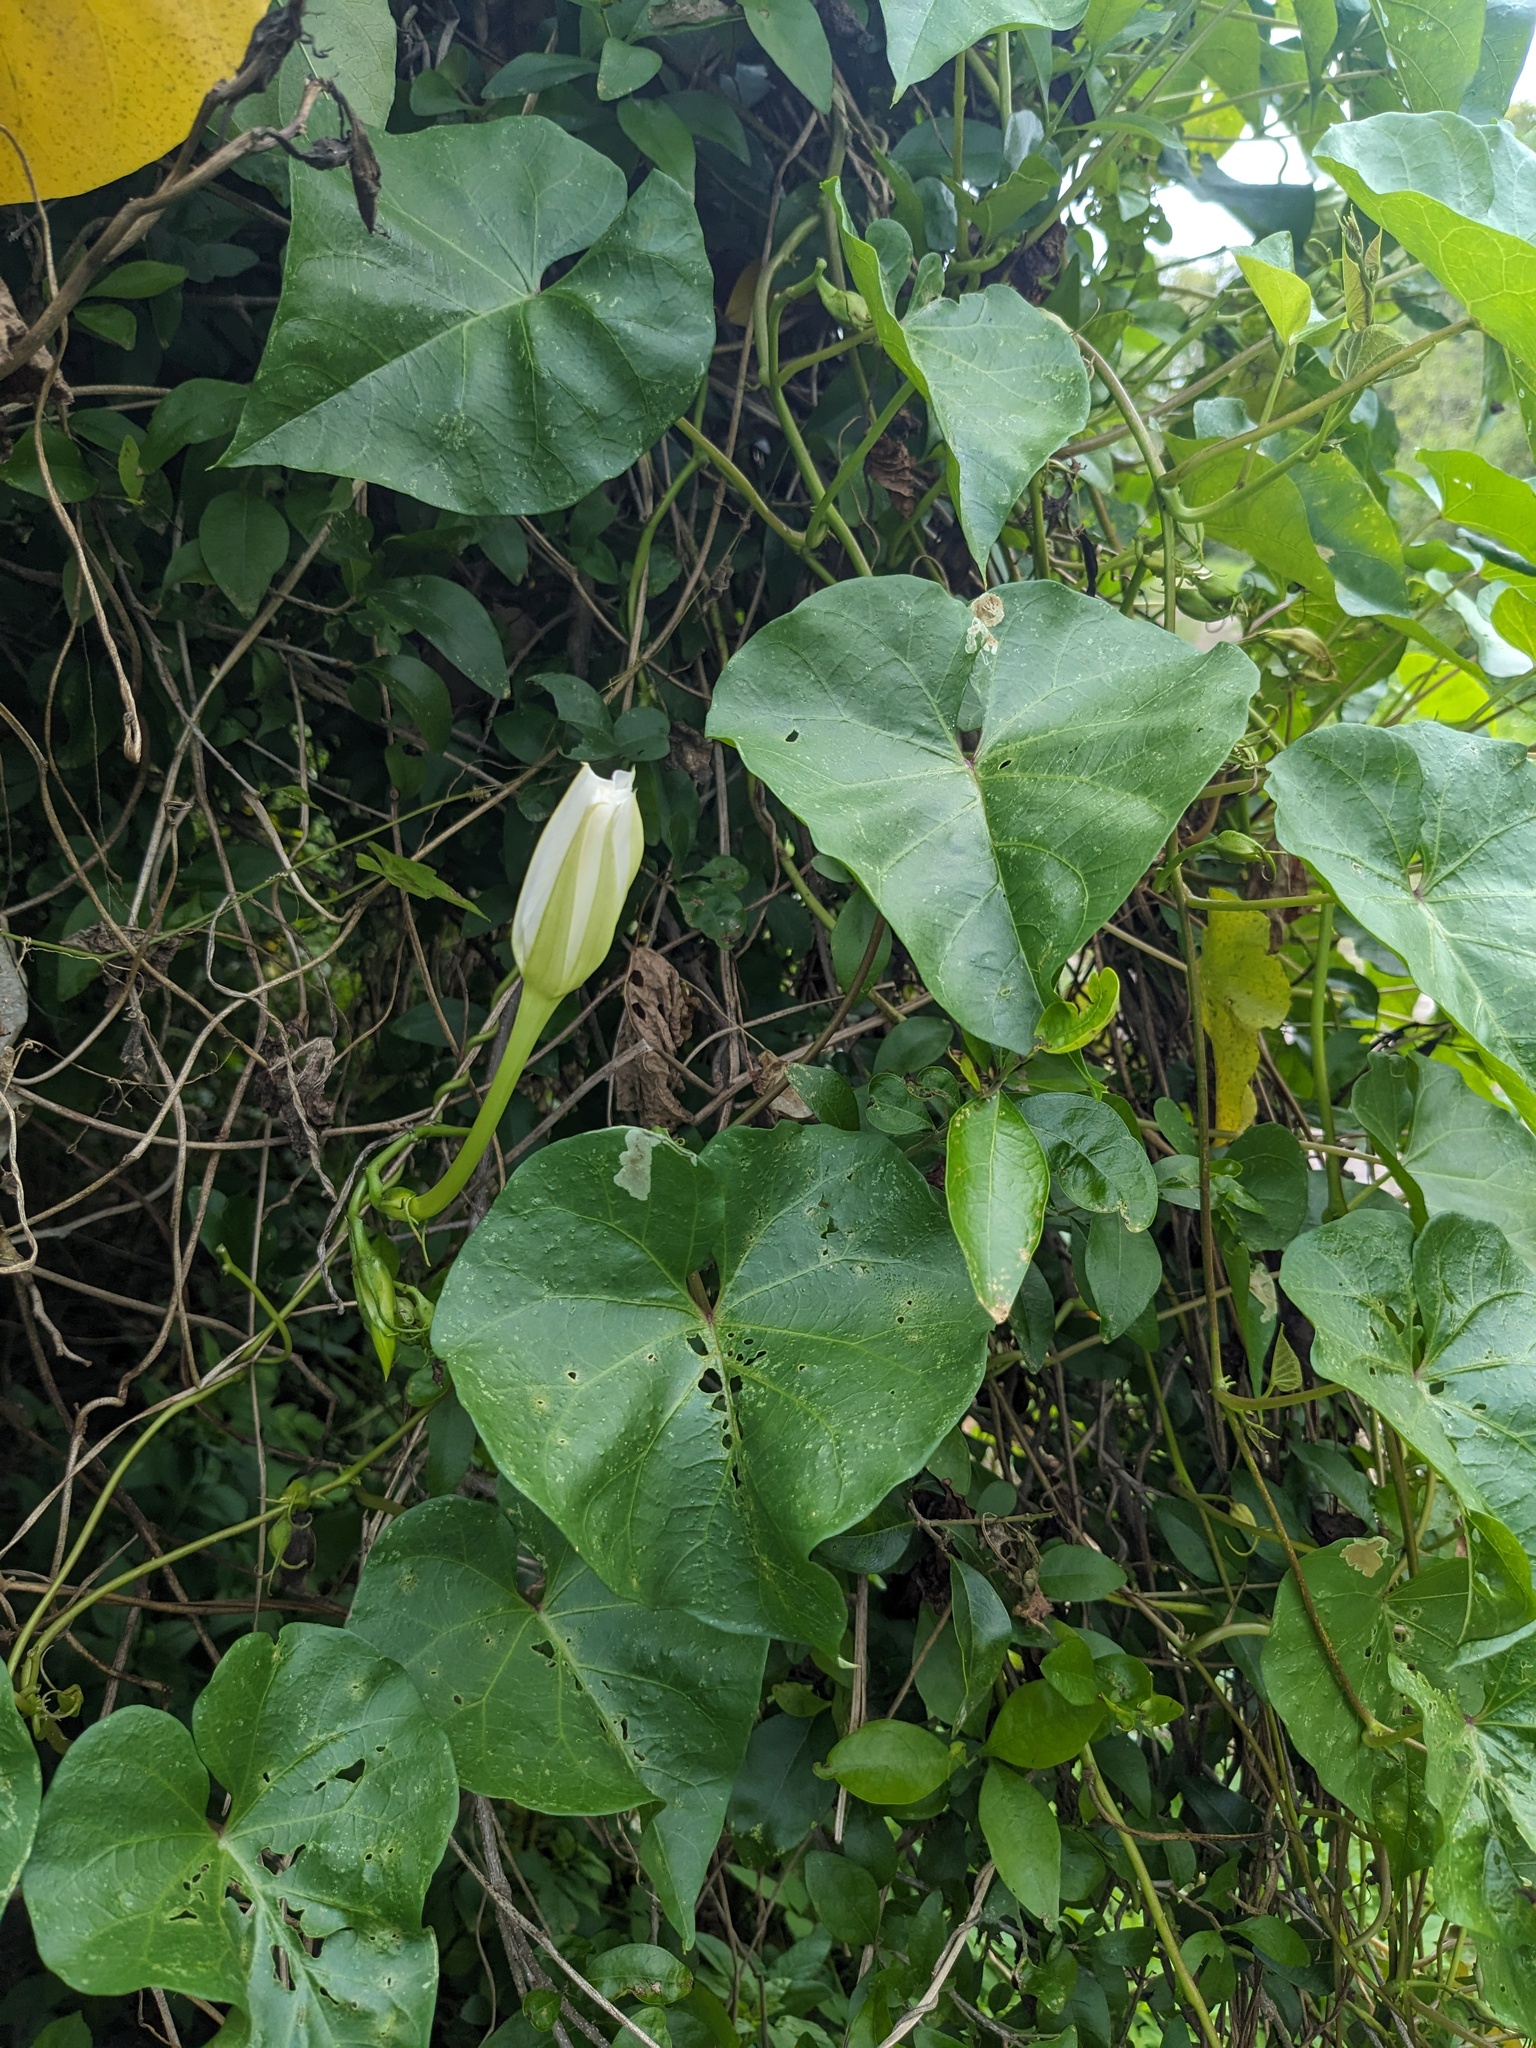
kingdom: Plantae
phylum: Tracheophyta
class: Magnoliopsida
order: Solanales
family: Convolvulaceae
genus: Ipomoea
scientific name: Ipomoea alba
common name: Moonflower
